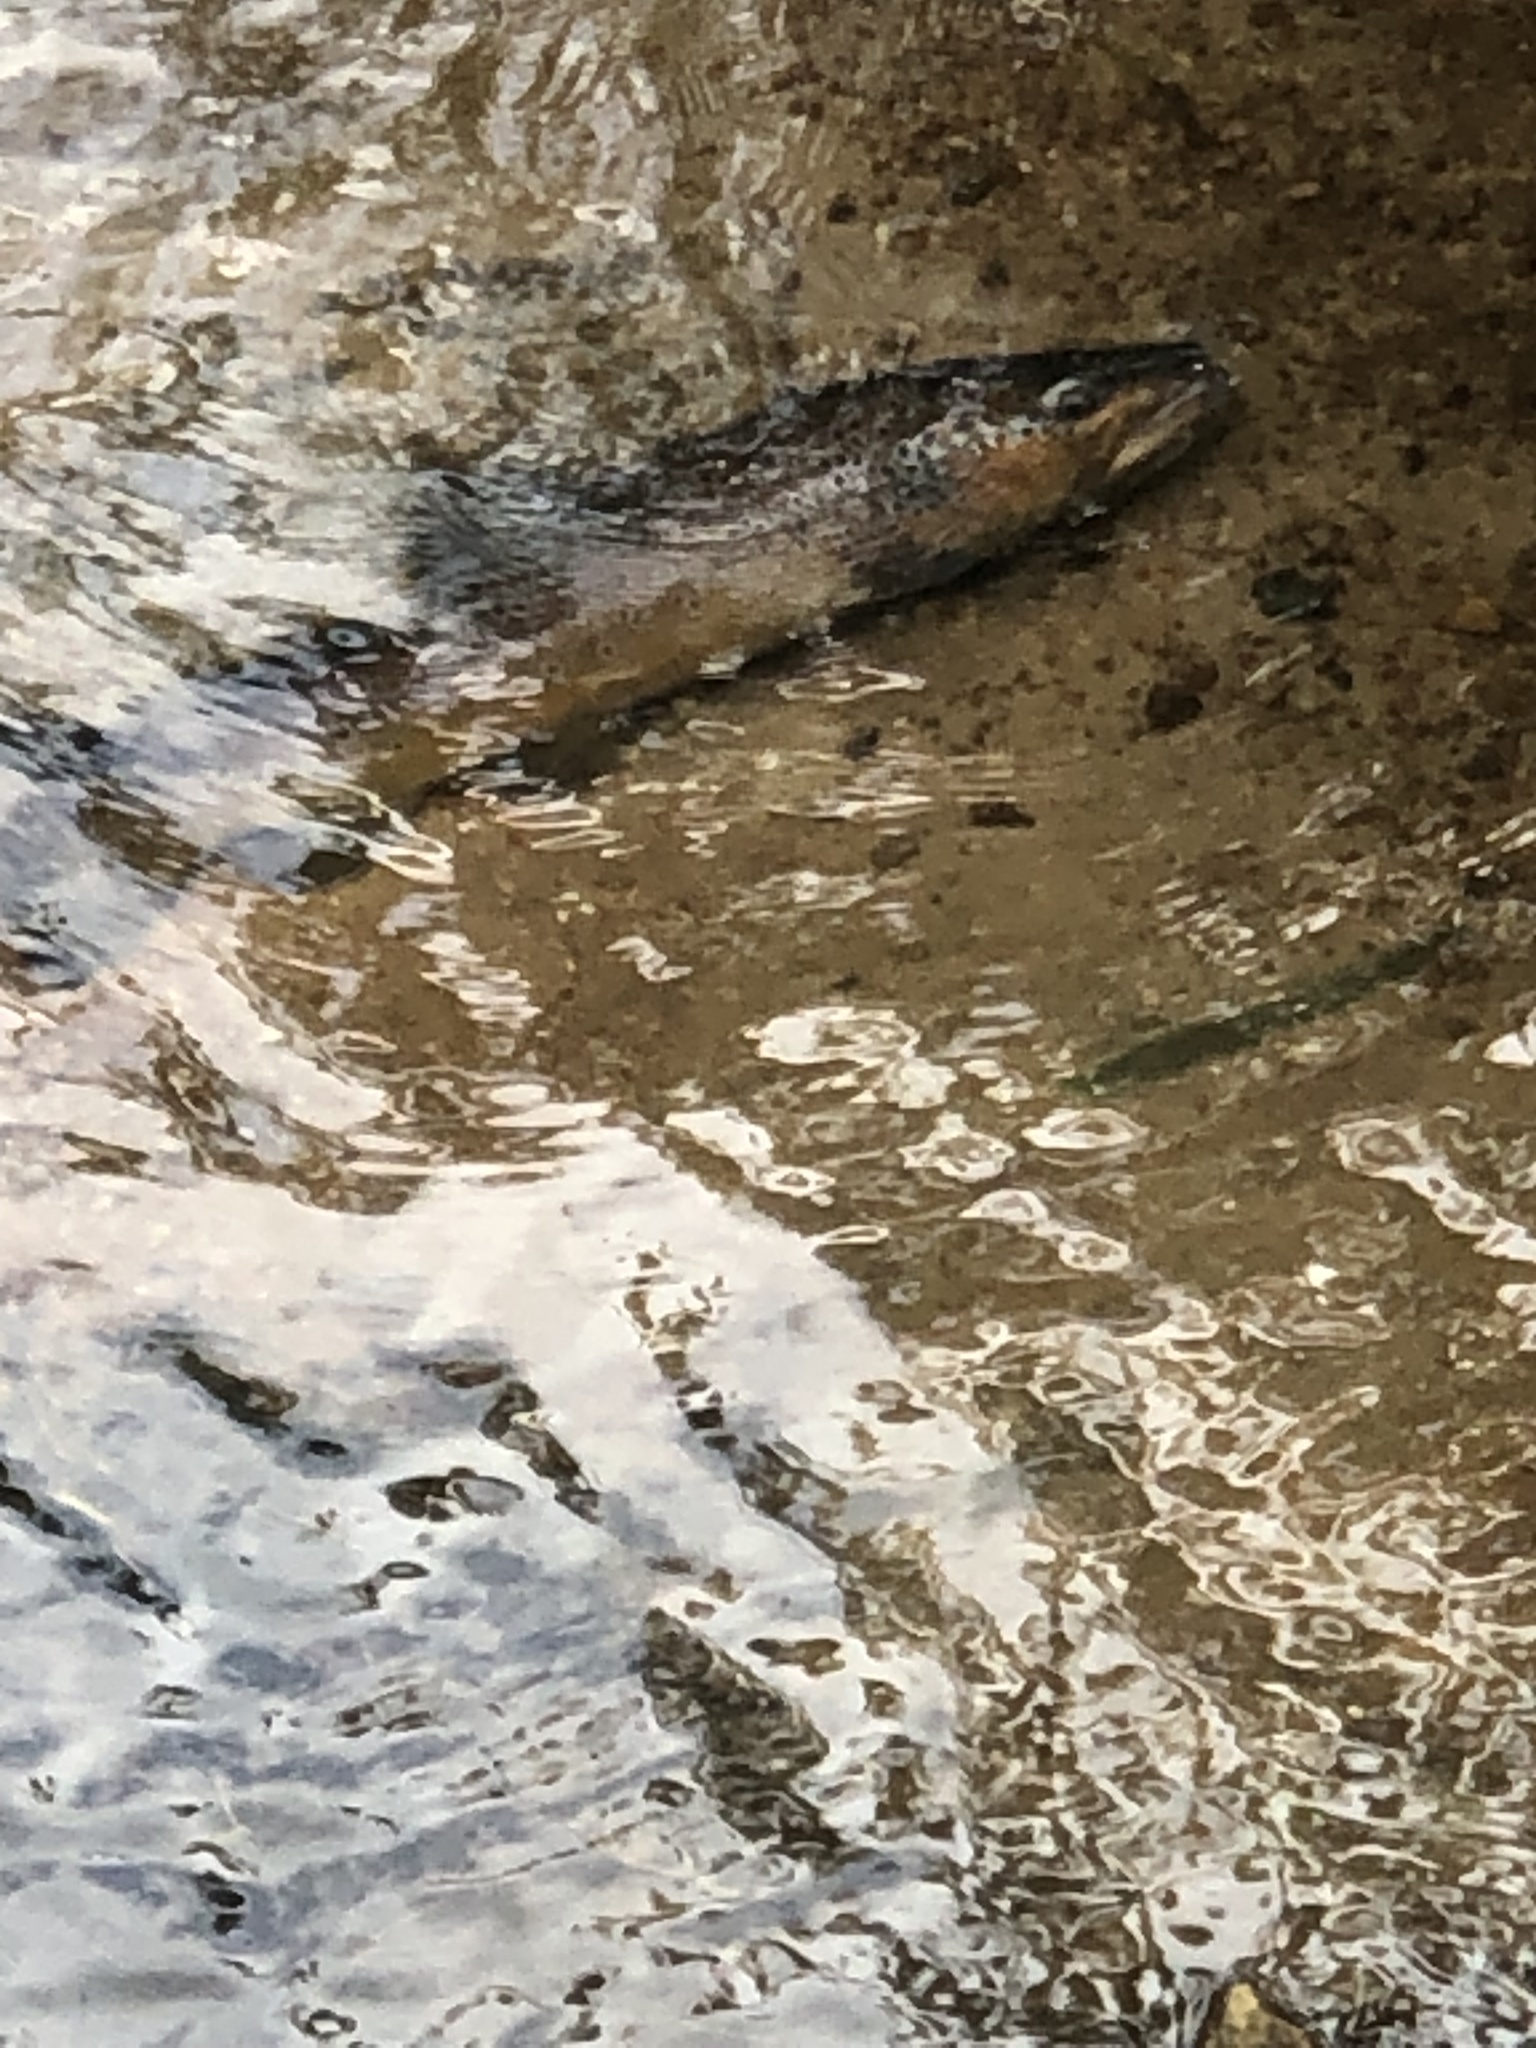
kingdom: Animalia
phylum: Chordata
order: Salmoniformes
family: Salmonidae
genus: Salmo
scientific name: Salmo trutta
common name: Brown trout
